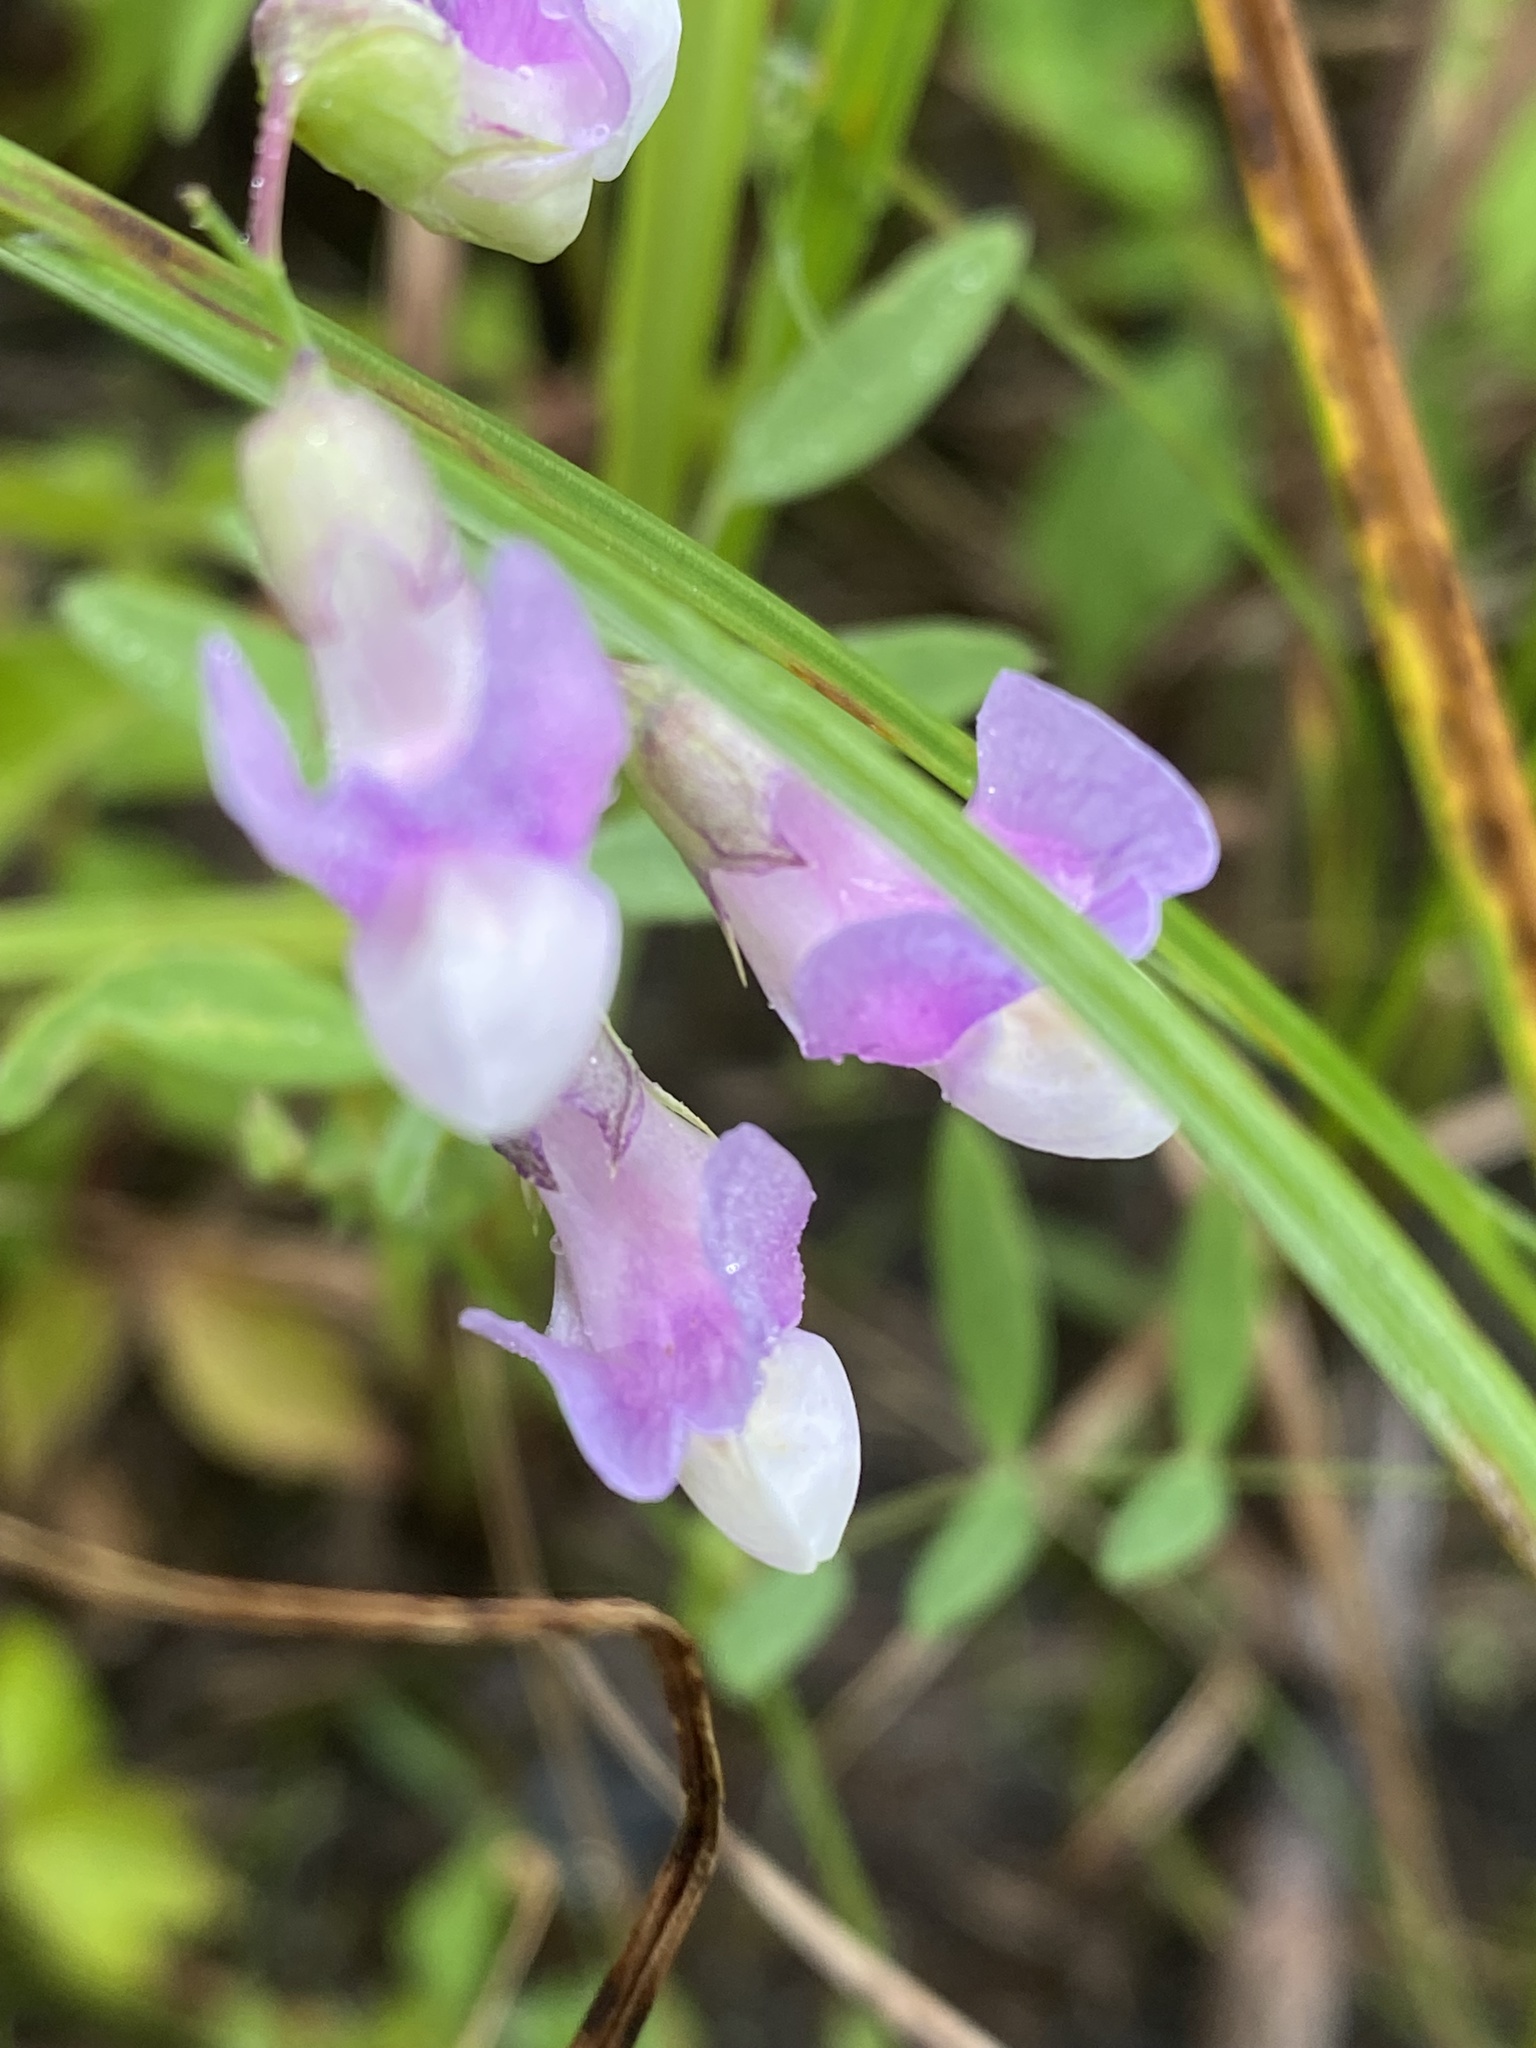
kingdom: Plantae
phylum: Tracheophyta
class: Magnoliopsida
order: Fabales
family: Fabaceae
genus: Lathyrus
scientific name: Lathyrus palustris
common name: Marsh pea
